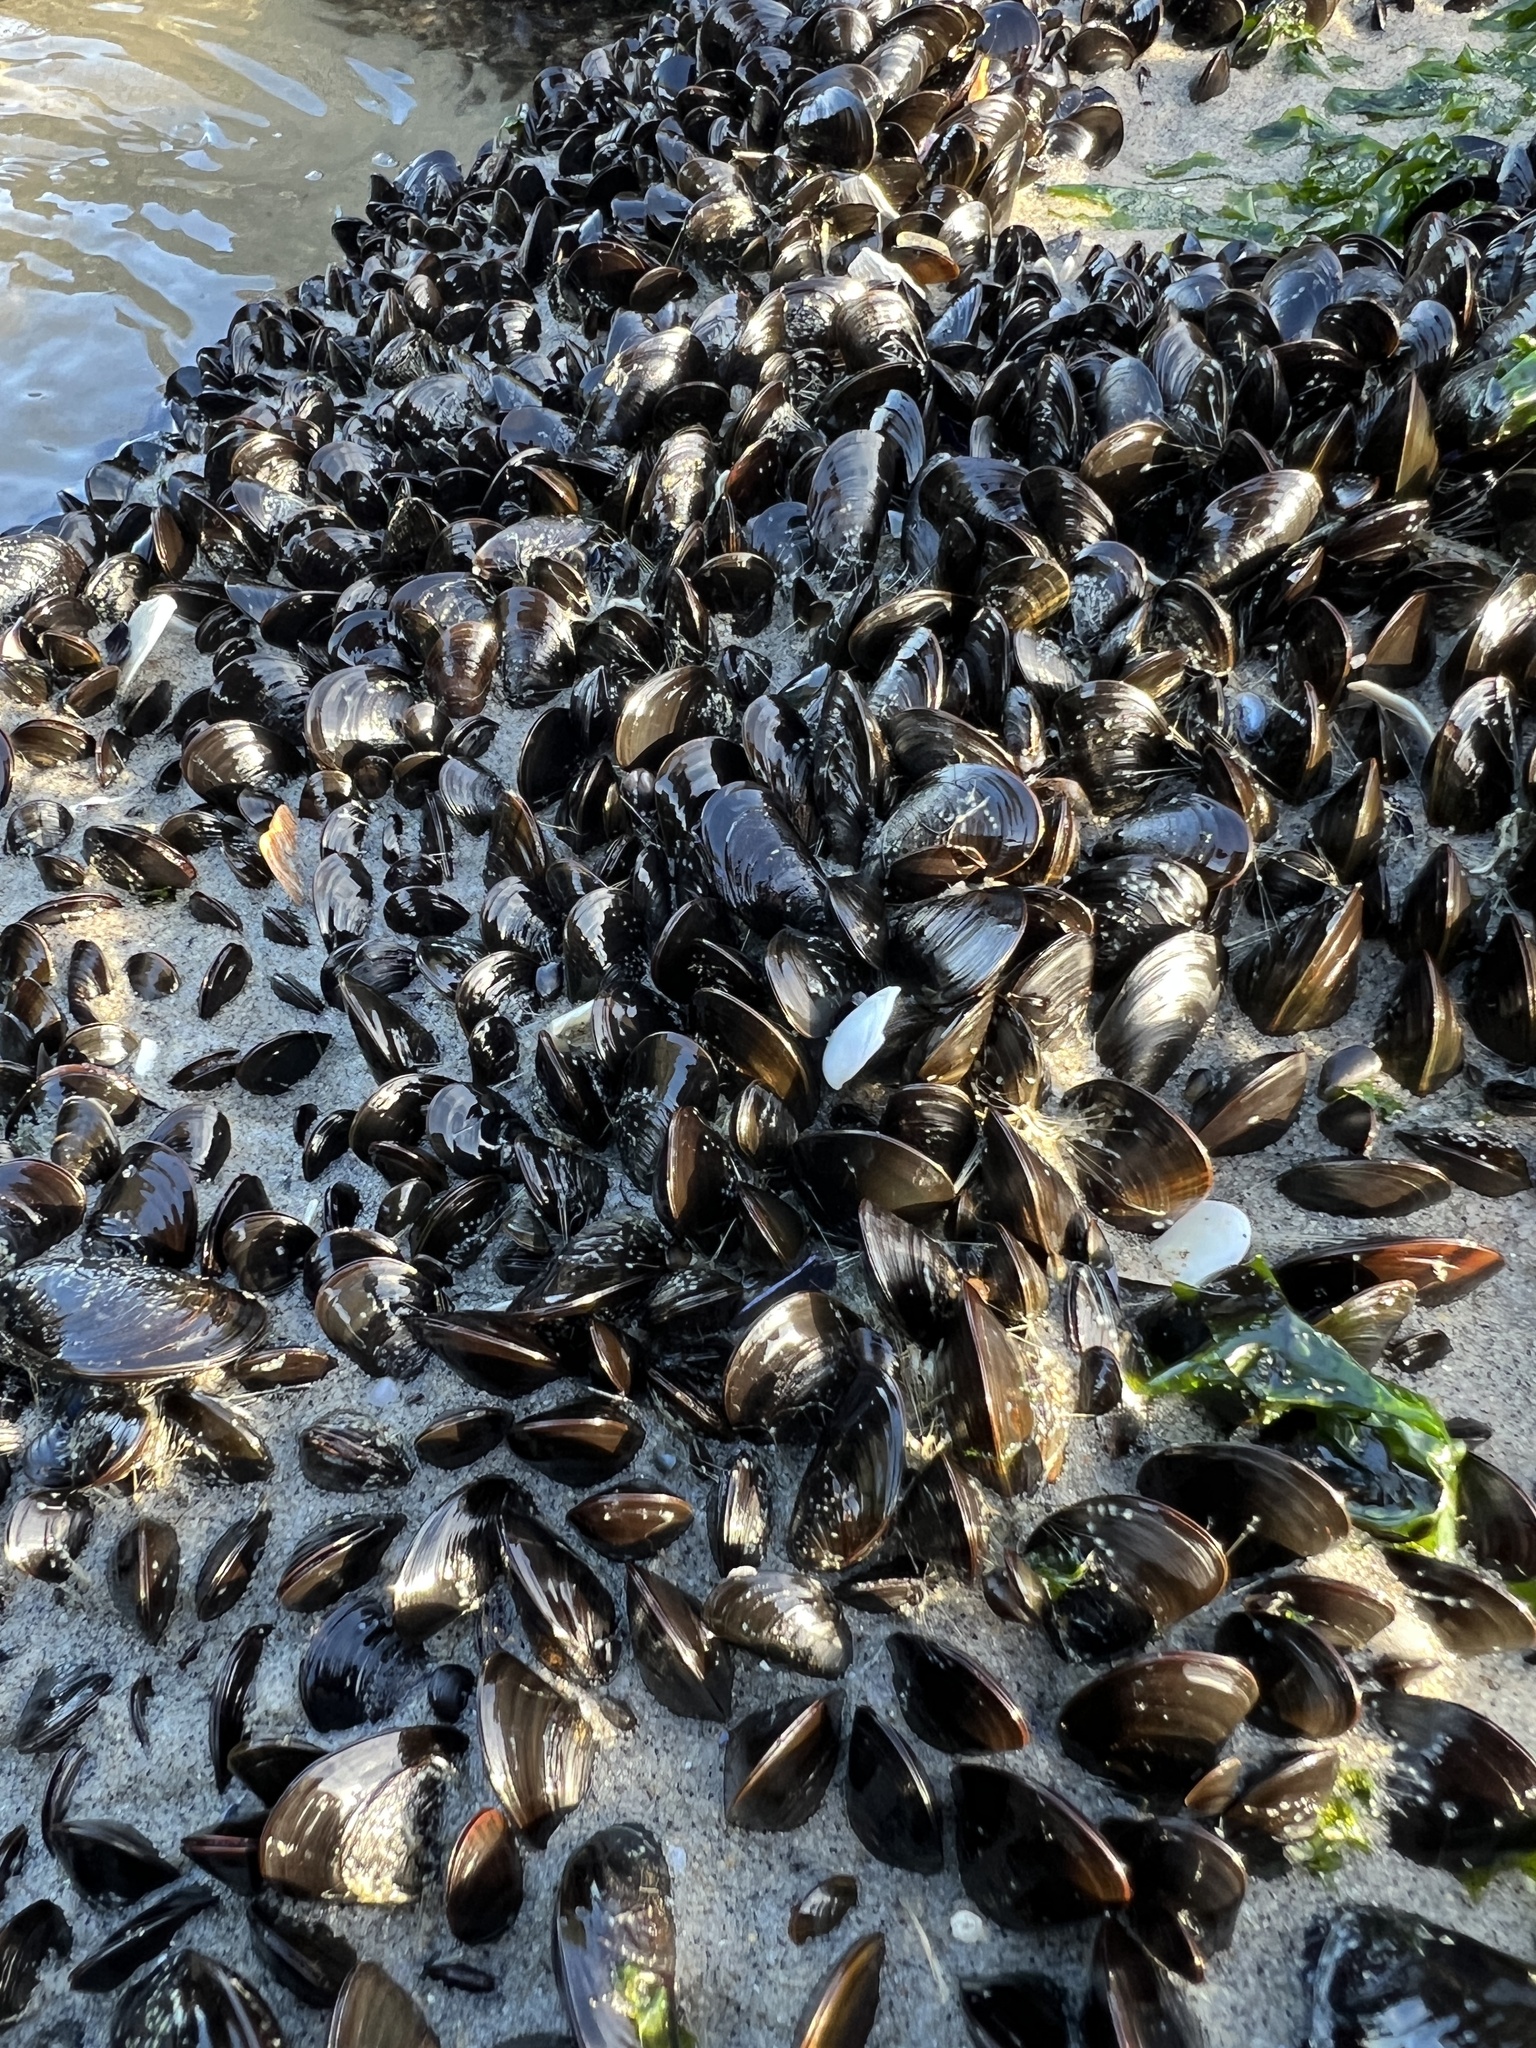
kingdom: Animalia
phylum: Mollusca
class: Bivalvia
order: Mytilida
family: Mytilidae
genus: Mytilus
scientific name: Mytilus edulis
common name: Blue mussel
